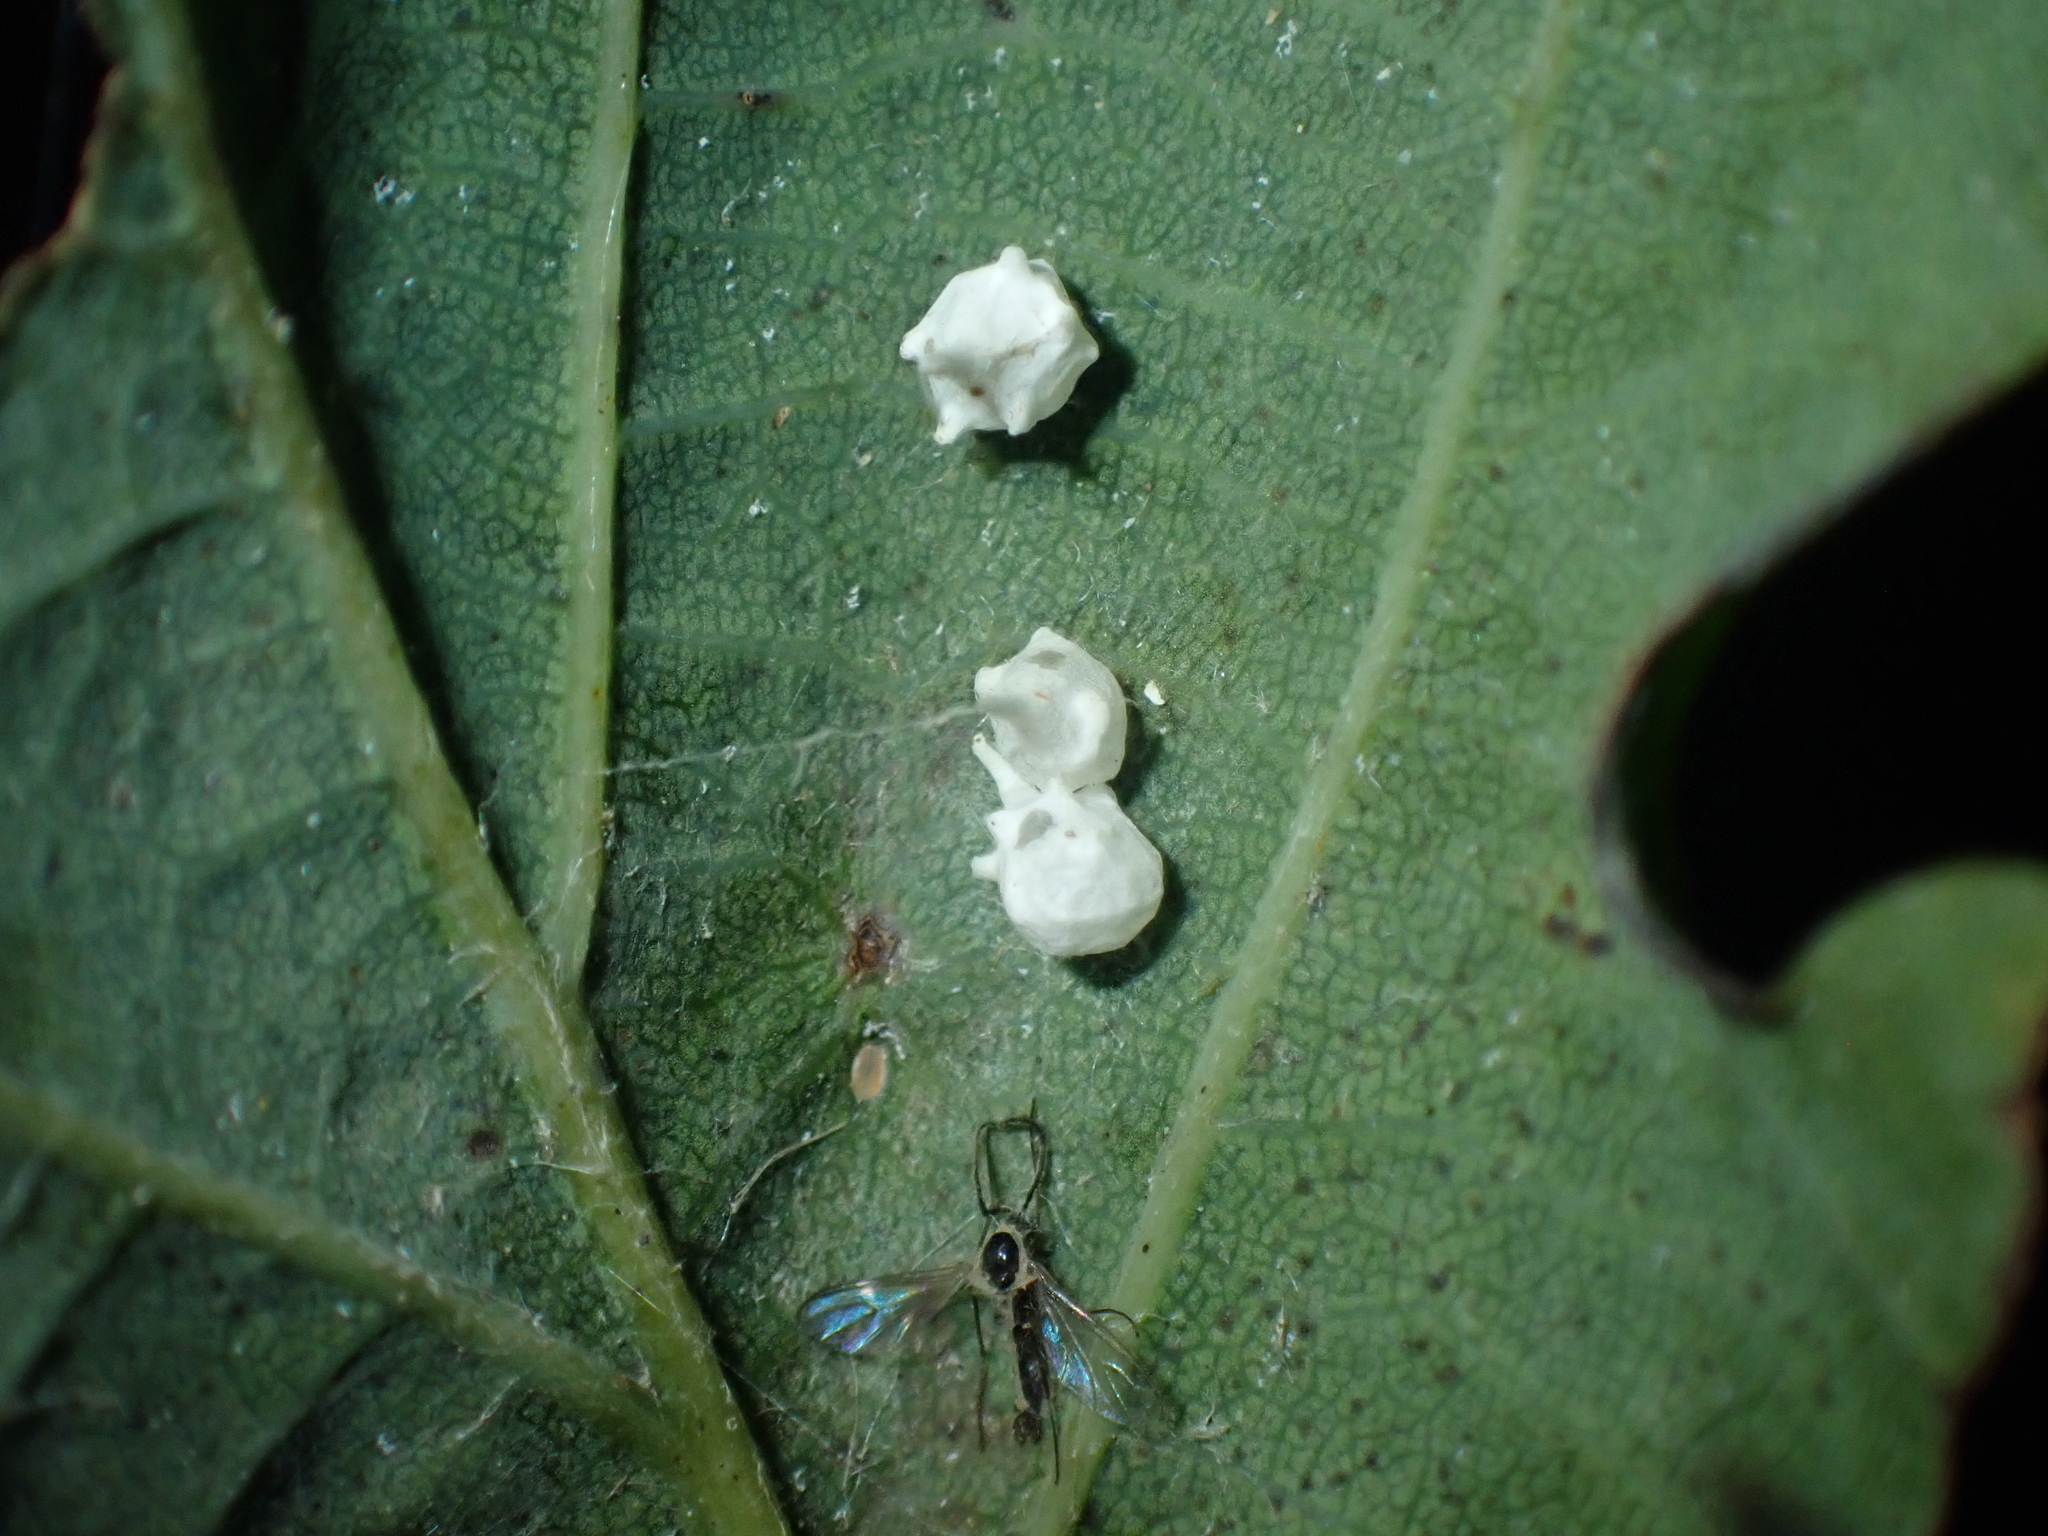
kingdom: Animalia
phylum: Arthropoda
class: Arachnida
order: Araneae
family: Theridiidae
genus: Paidiscura
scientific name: Paidiscura pallens
